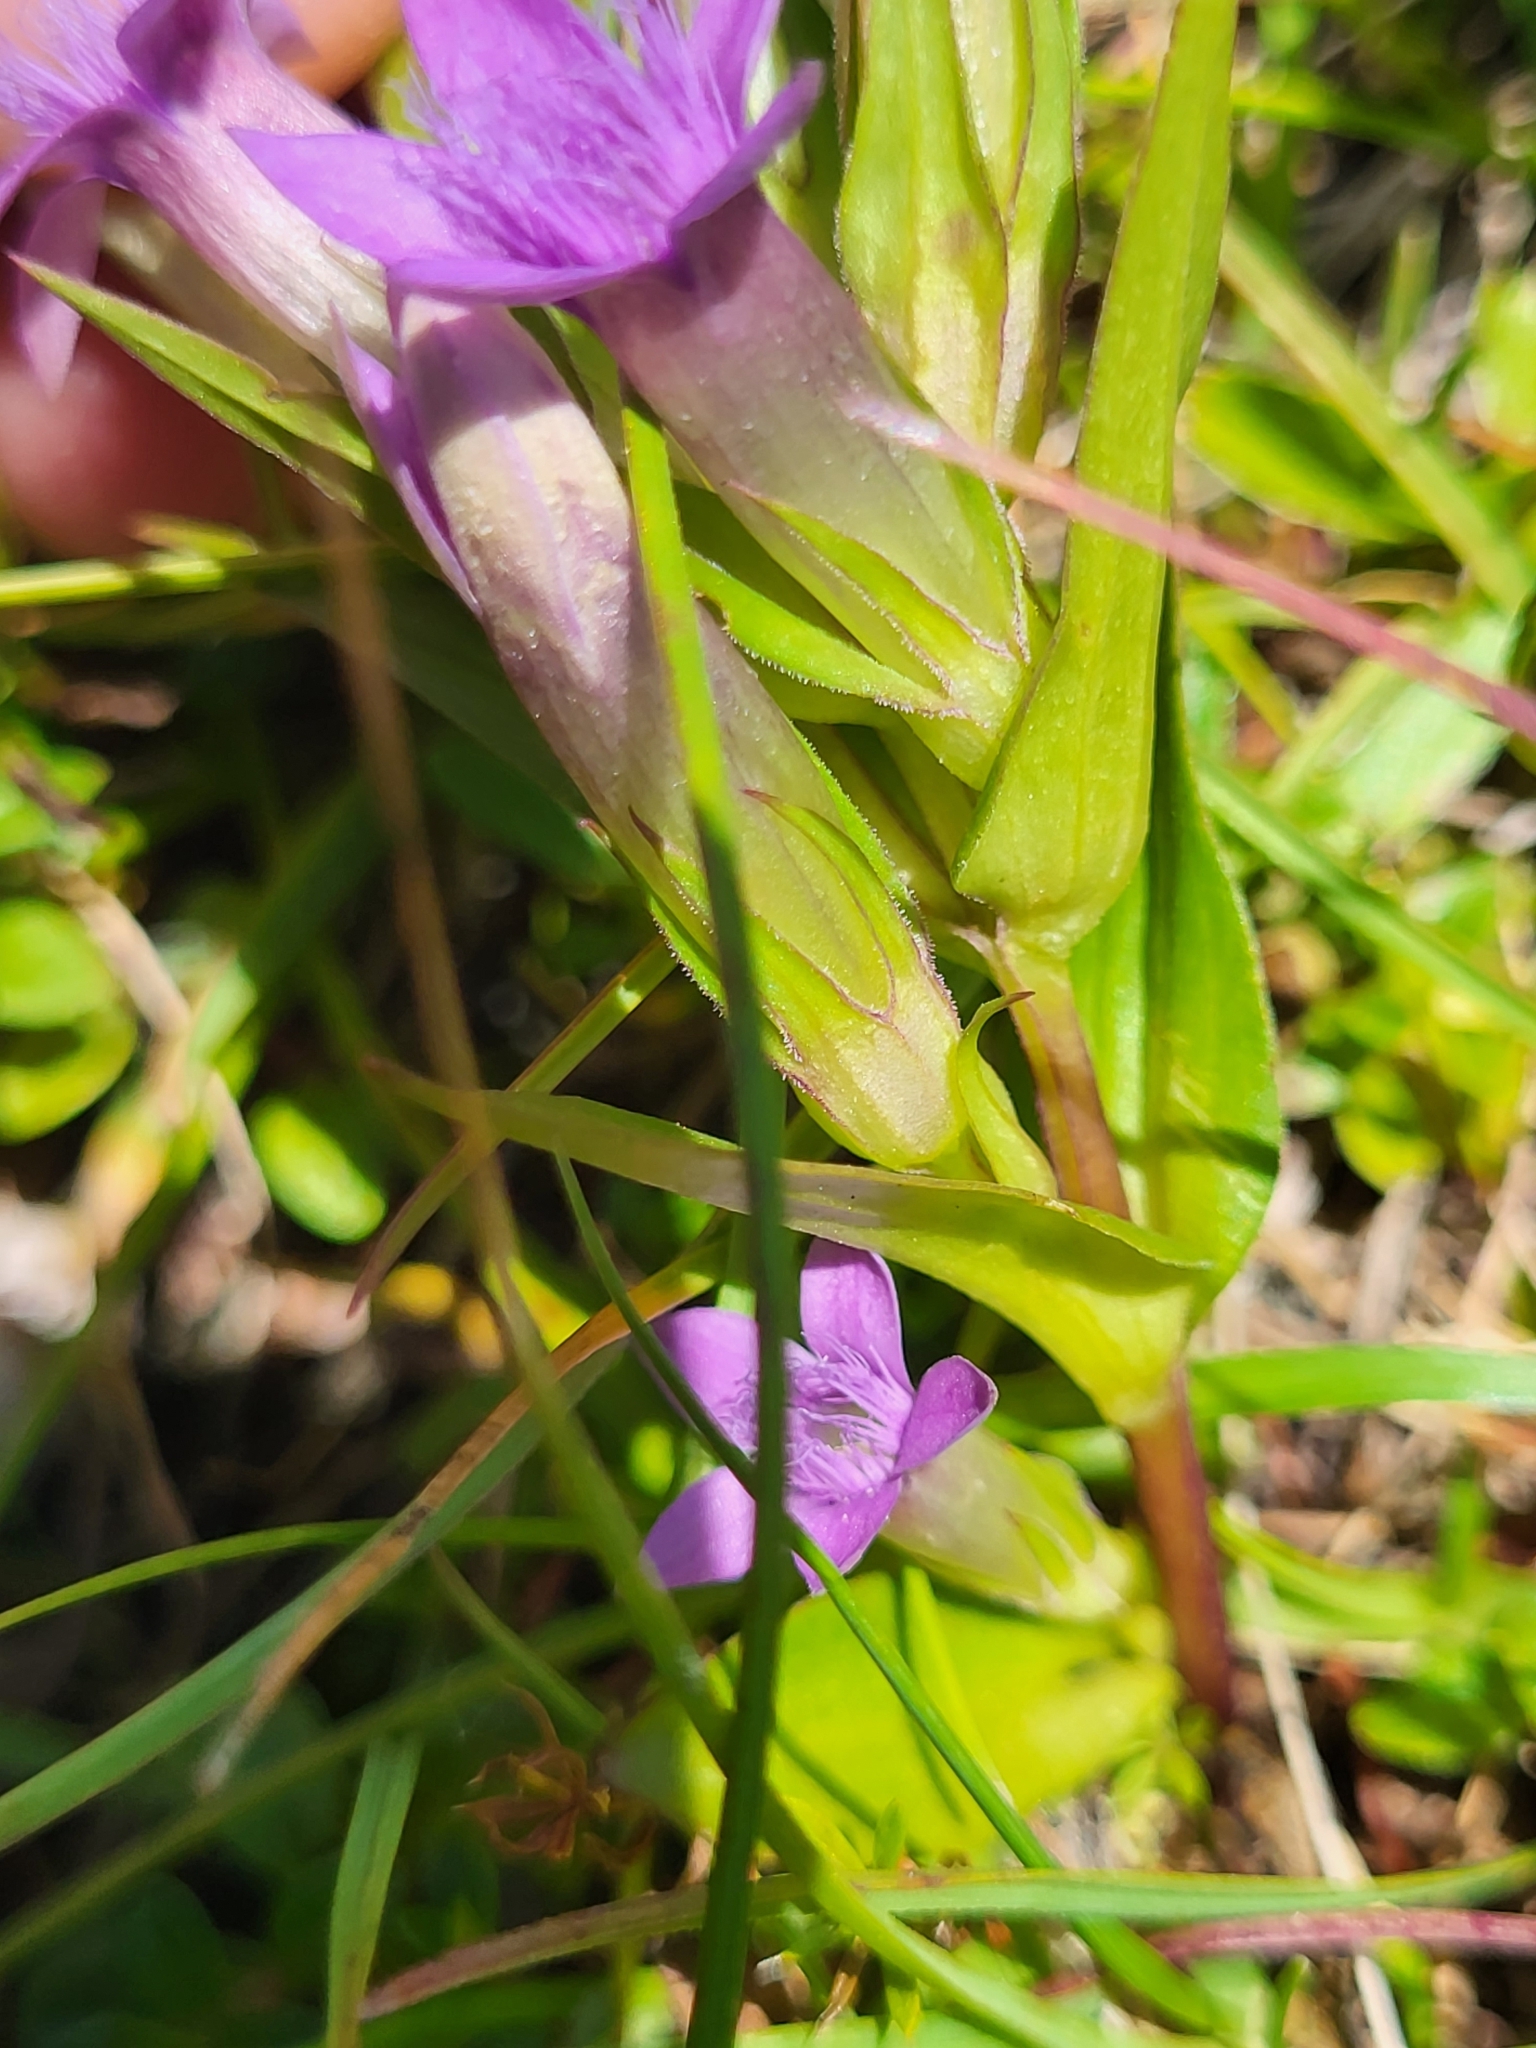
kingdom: Plantae
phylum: Tracheophyta
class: Magnoliopsida
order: Gentianales
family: Gentianaceae
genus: Gentianella
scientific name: Gentianella anisodonta
